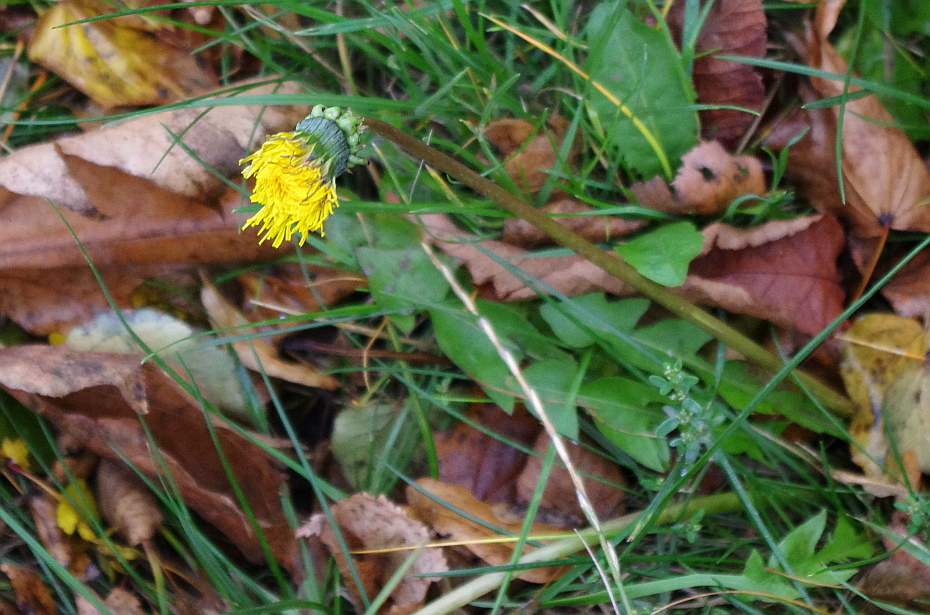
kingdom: Plantae
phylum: Tracheophyta
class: Magnoliopsida
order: Asterales
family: Asteraceae
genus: Taraxacum
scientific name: Taraxacum officinale
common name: Common dandelion
